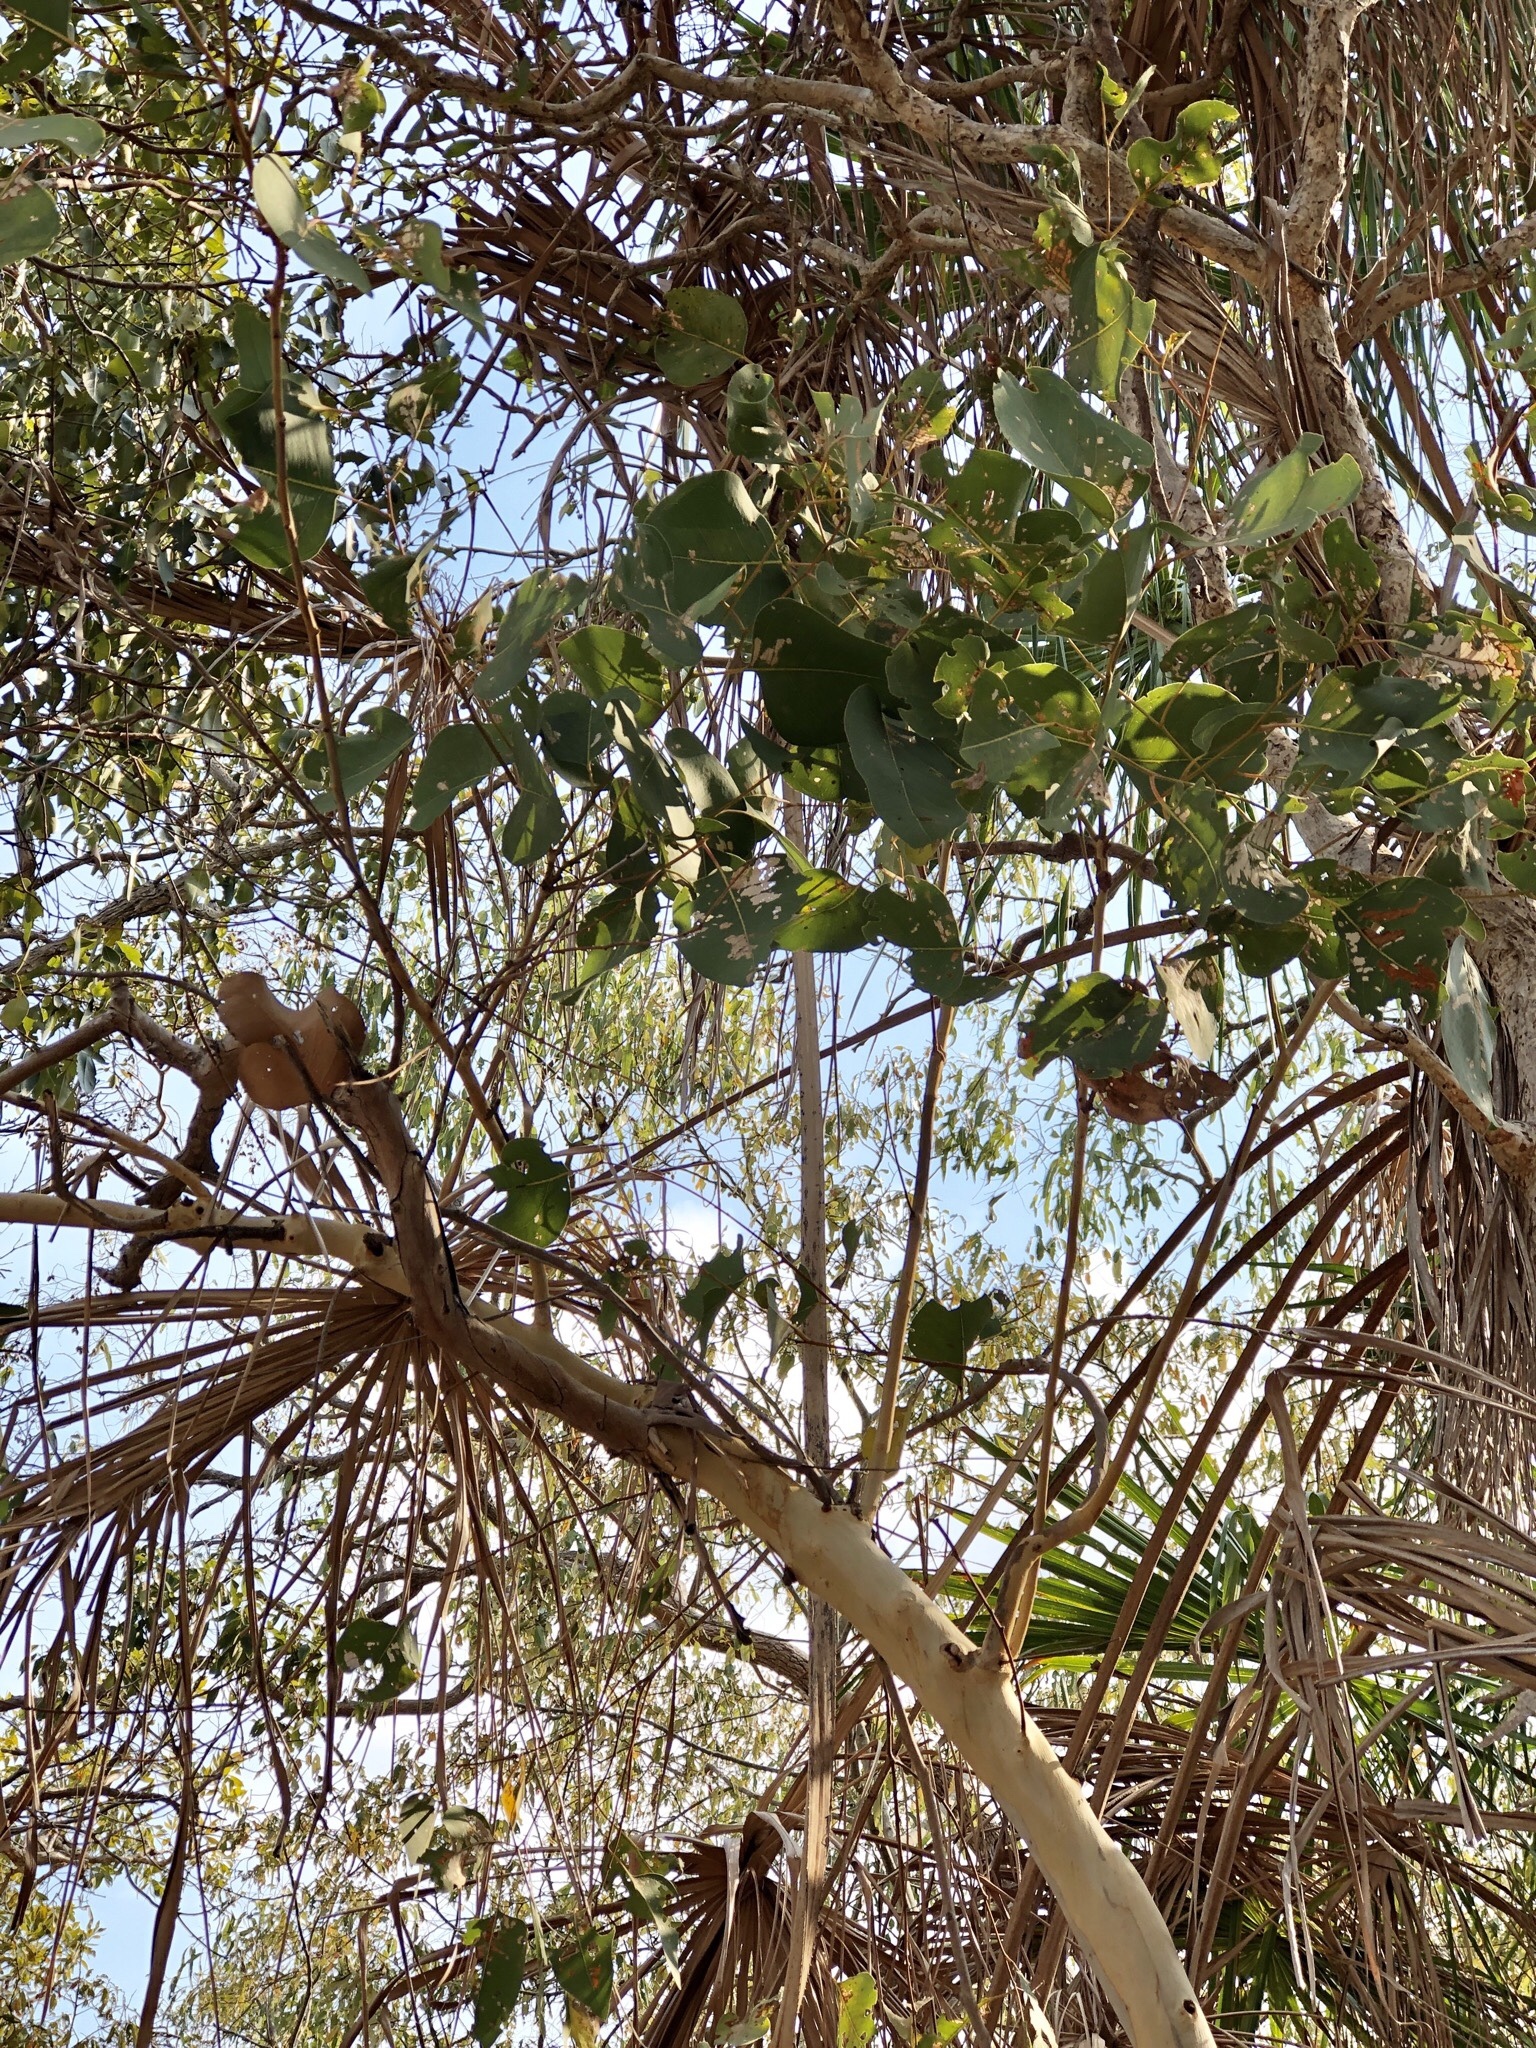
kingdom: Plantae
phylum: Tracheophyta
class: Magnoliopsida
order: Myrtales
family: Myrtaceae
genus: Eucalyptus
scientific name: Eucalyptus platyphylla
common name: Poplar-gum
